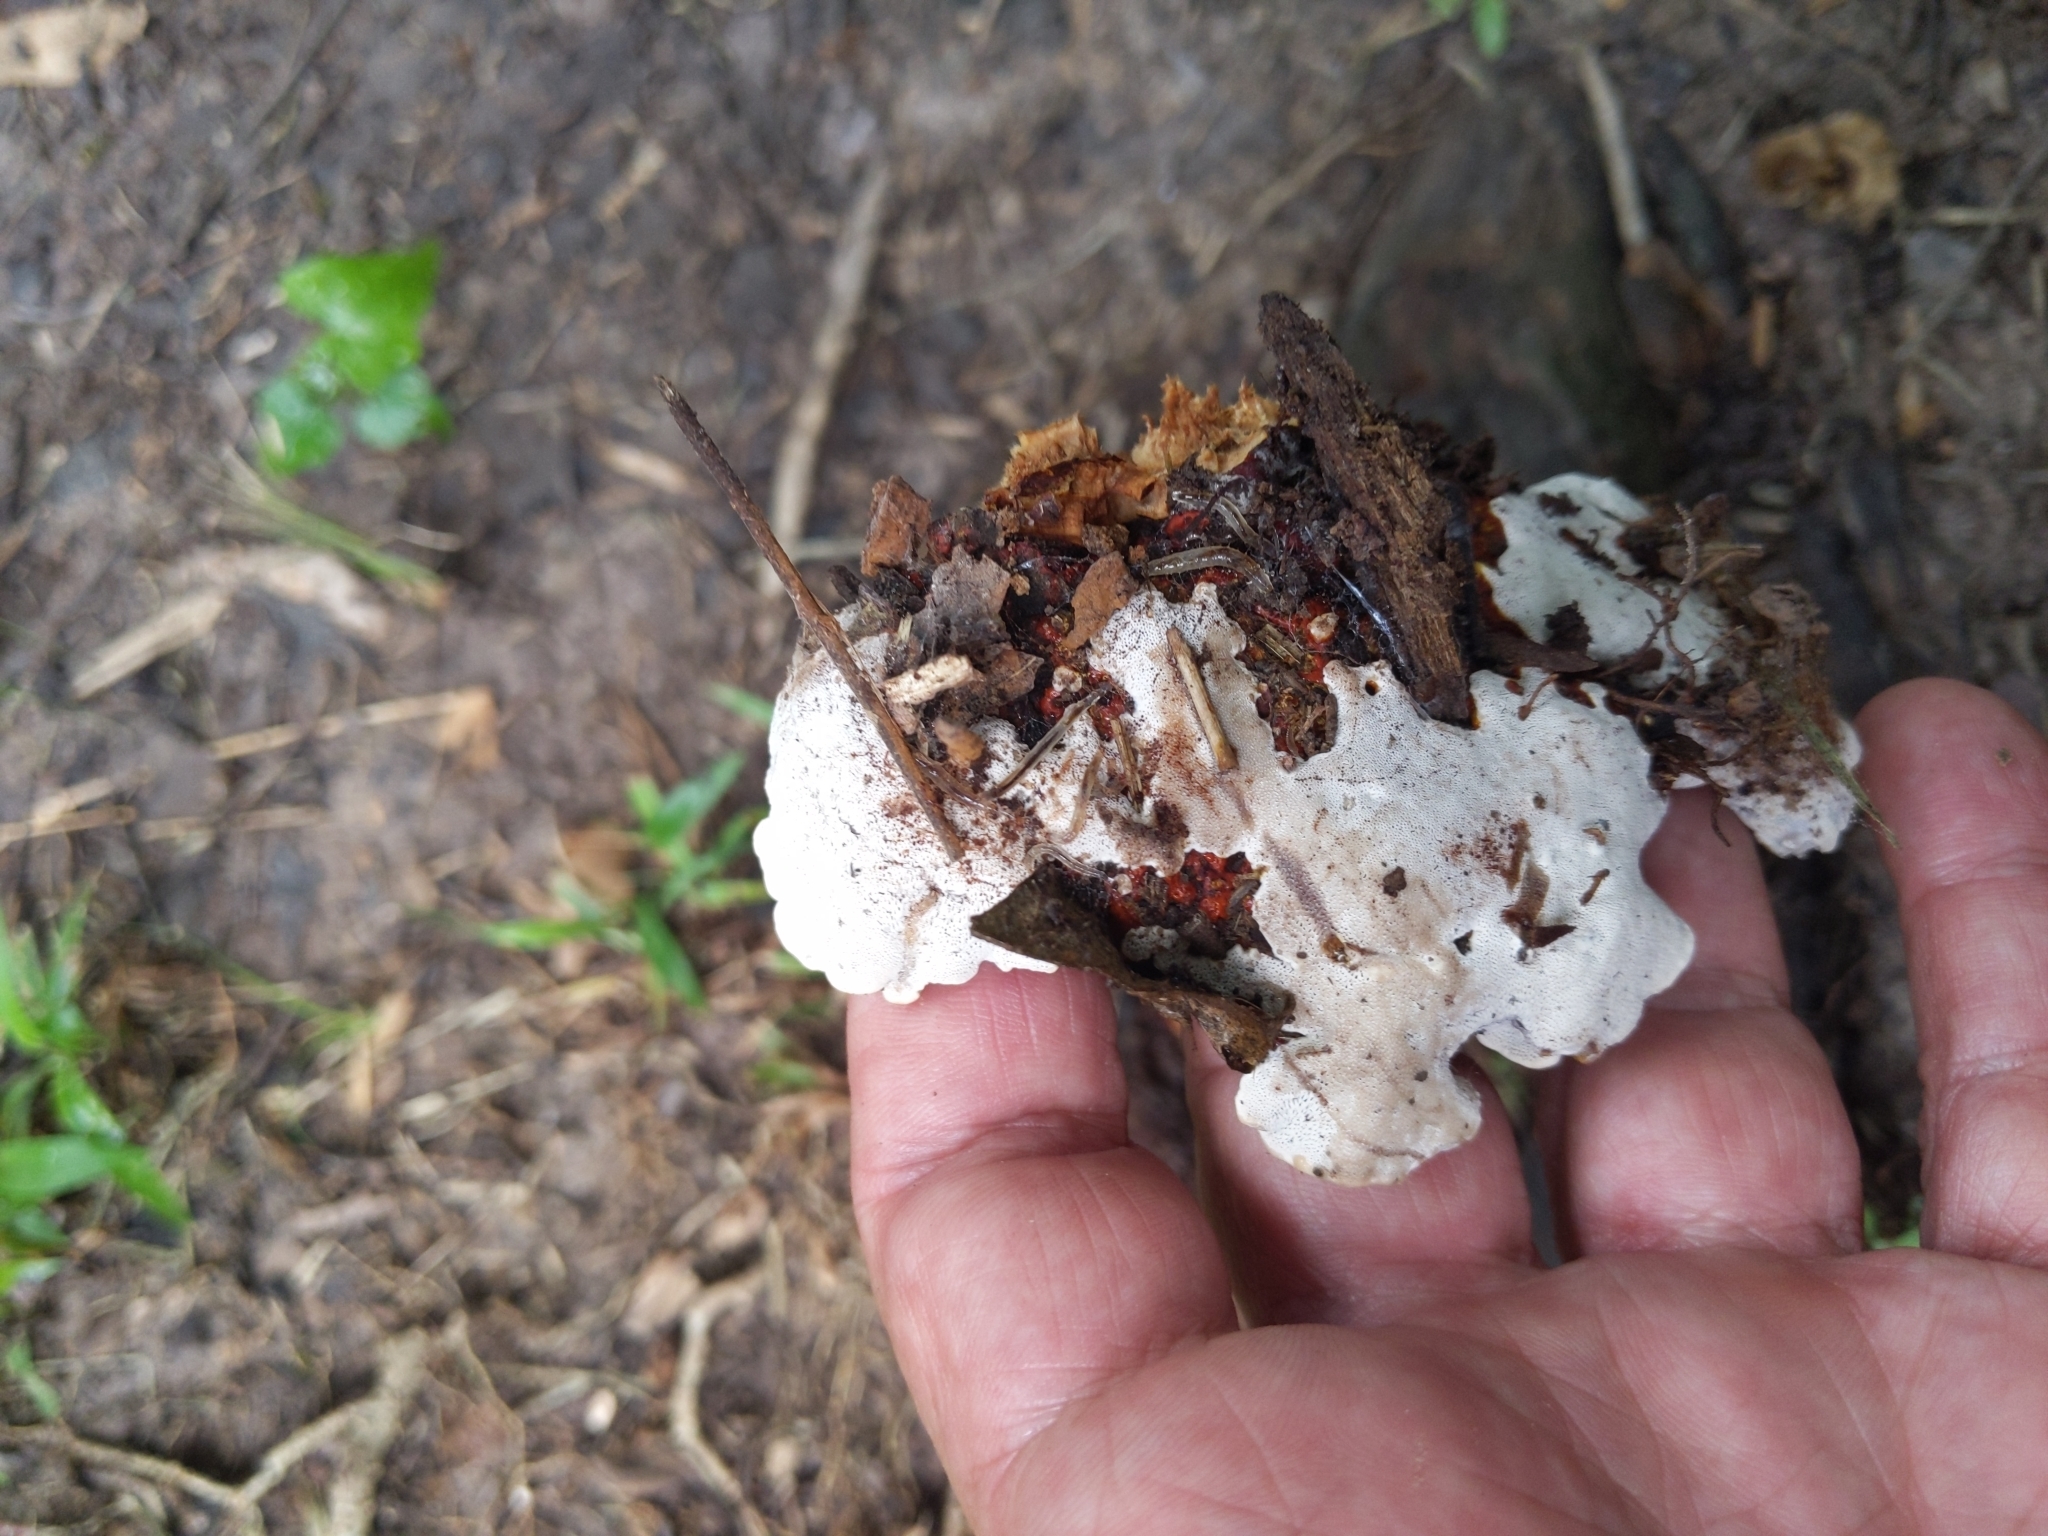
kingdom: Fungi
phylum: Basidiomycota
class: Agaricomycetes
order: Polyporales
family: Polyporaceae
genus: Ganoderma
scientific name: Ganoderma resinaceum
